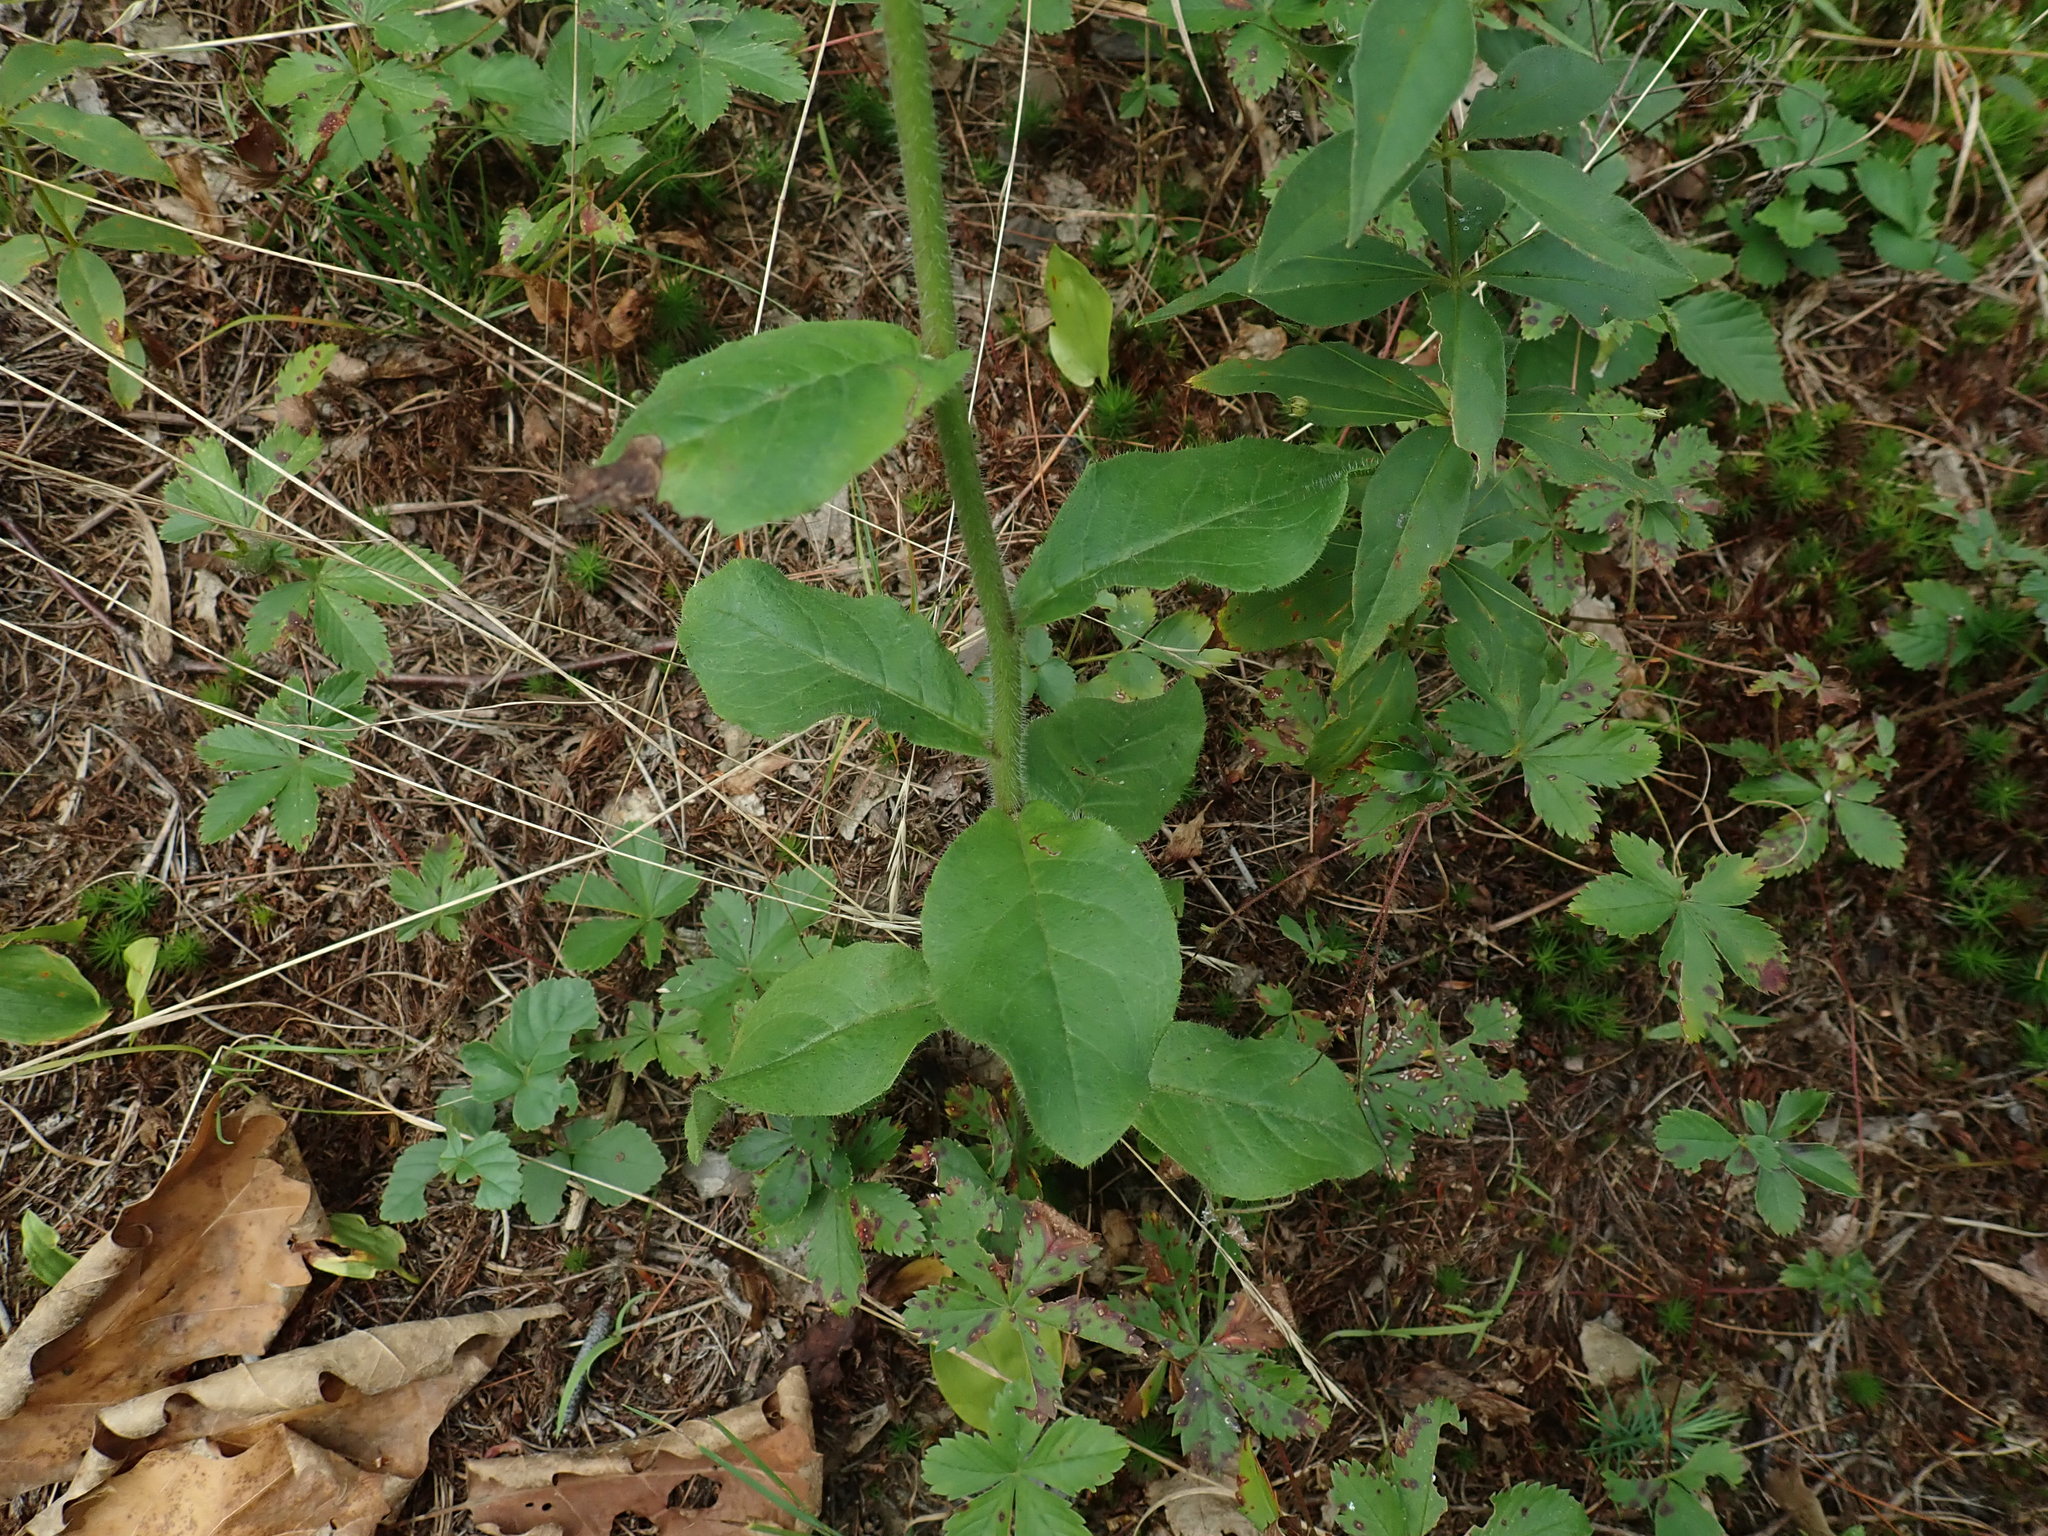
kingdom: Plantae
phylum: Tracheophyta
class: Magnoliopsida
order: Asterales
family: Asteraceae
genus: Hieracium
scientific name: Hieracium scabrum
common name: Rough hawkweed
